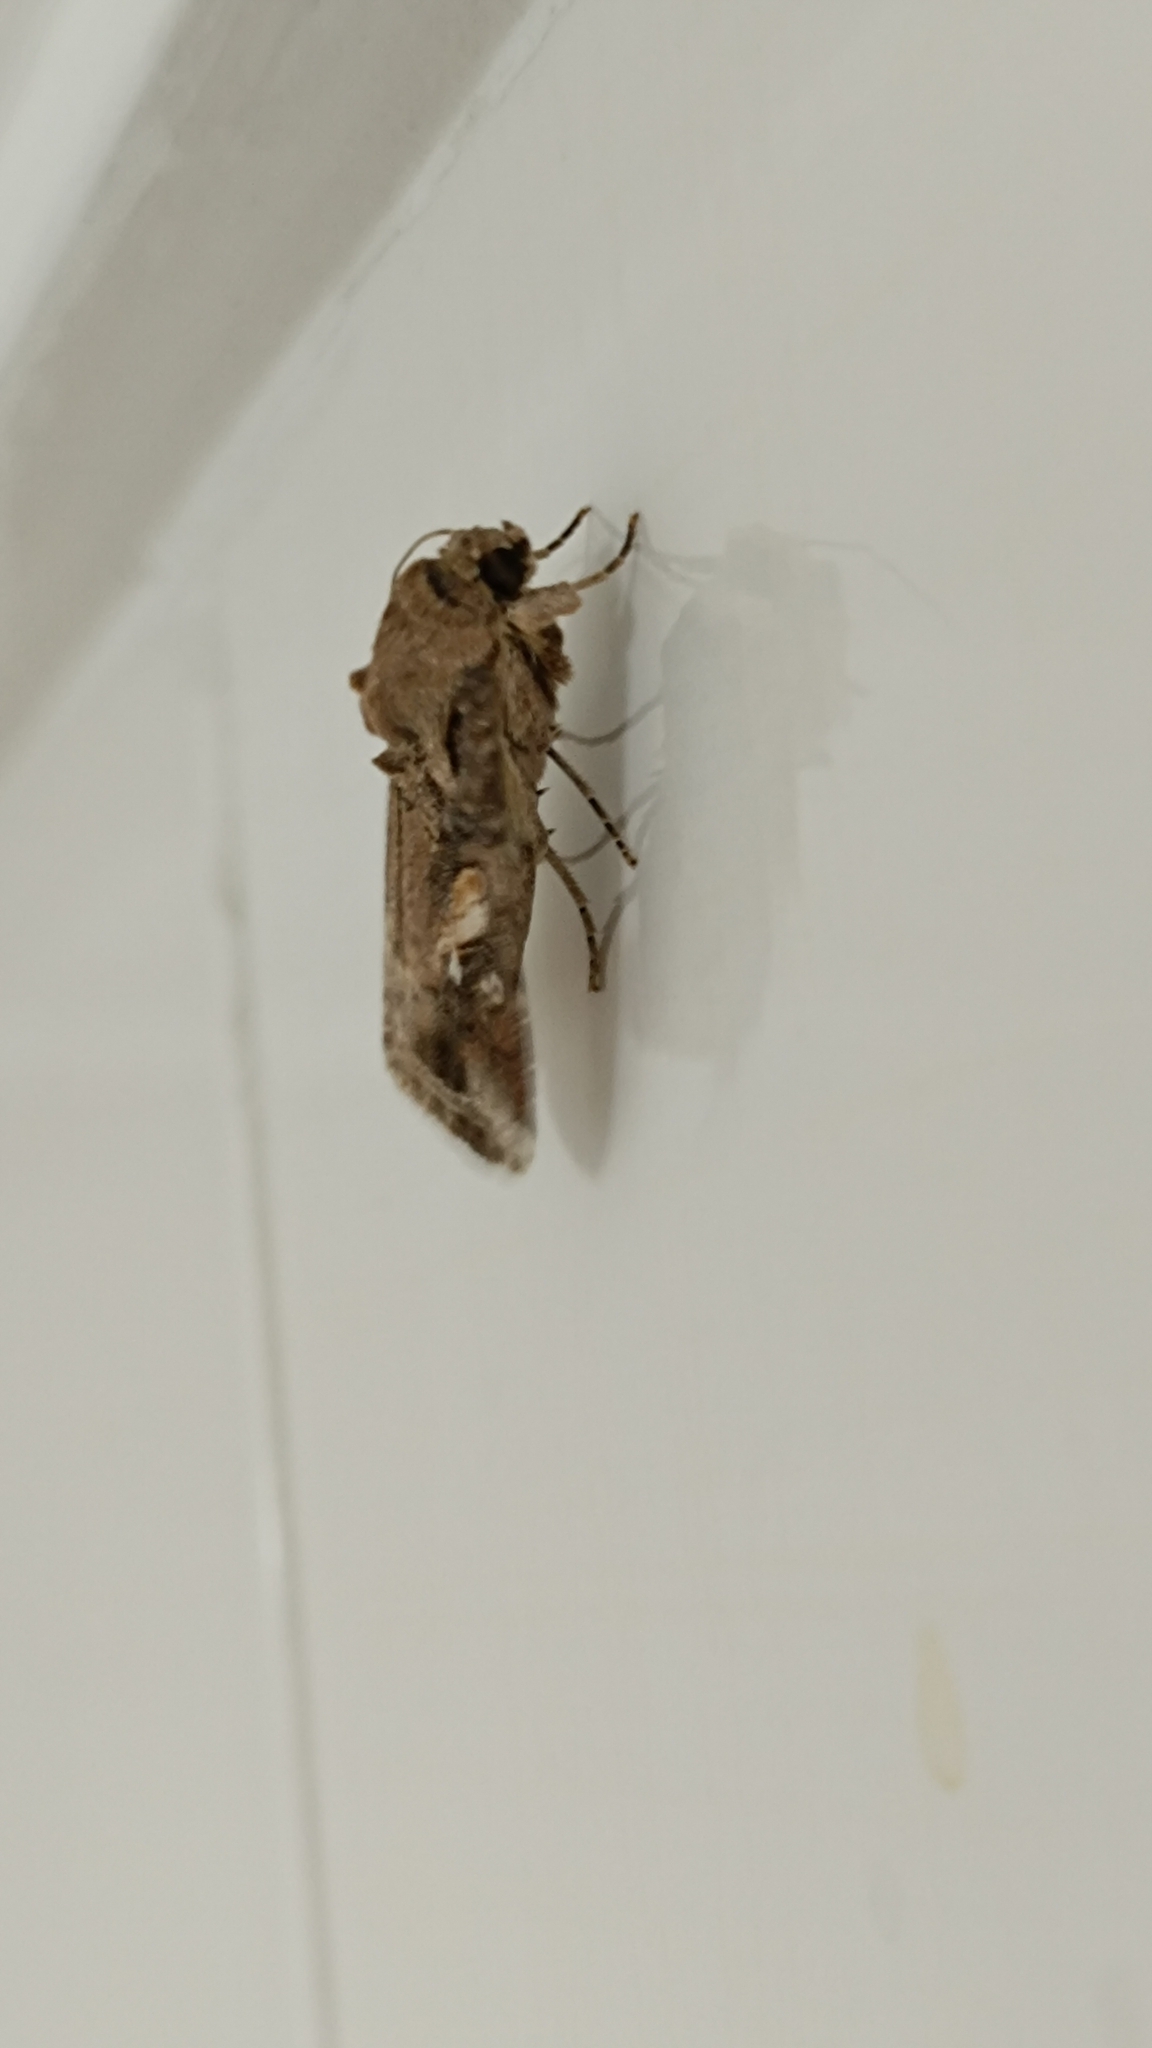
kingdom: Animalia
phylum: Arthropoda
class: Insecta
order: Lepidoptera
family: Noctuidae
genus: Spodoptera
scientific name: Spodoptera frugiperda
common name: Fall armyworm
